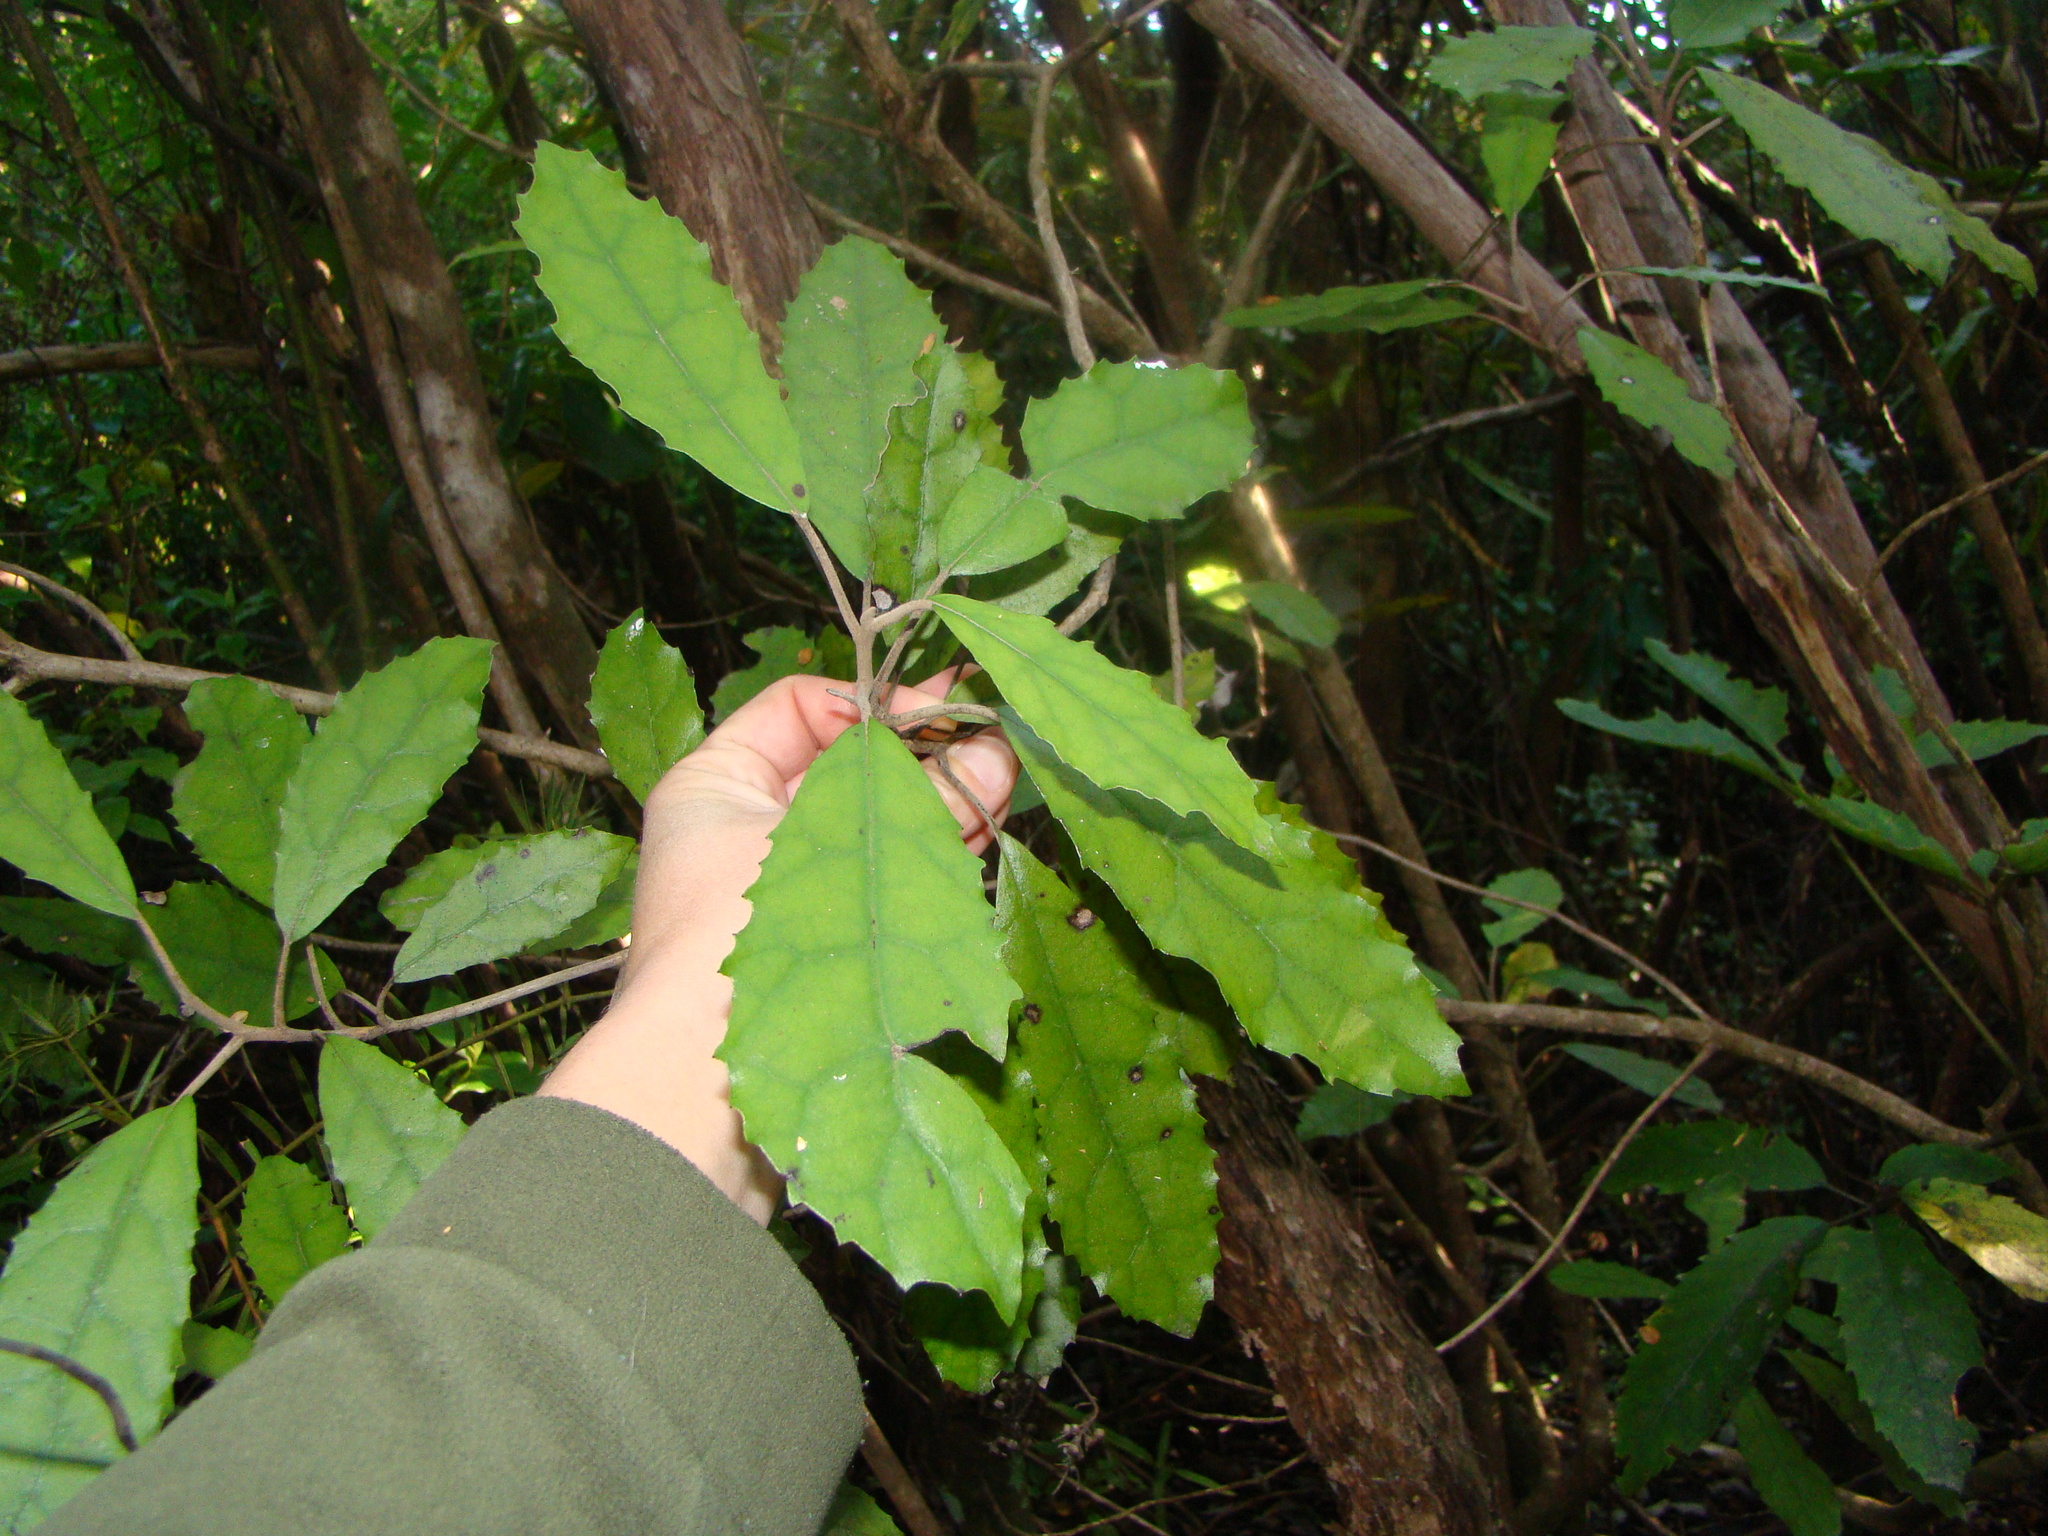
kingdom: Plantae
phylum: Tracheophyta
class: Magnoliopsida
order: Asterales
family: Asteraceae
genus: Olearia
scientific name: Olearia rani
